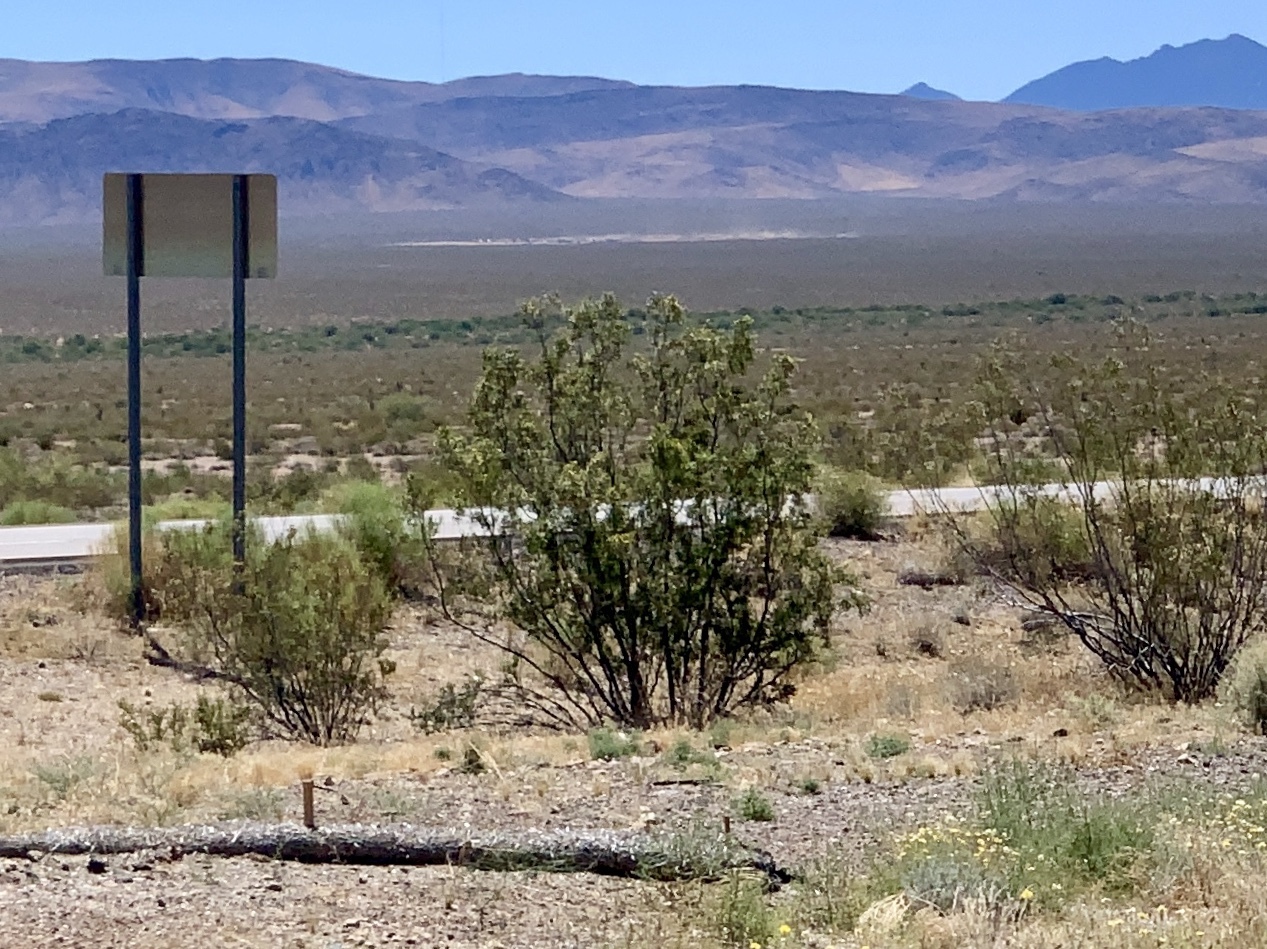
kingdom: Plantae
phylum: Tracheophyta
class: Magnoliopsida
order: Zygophyllales
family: Zygophyllaceae
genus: Larrea
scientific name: Larrea tridentata
